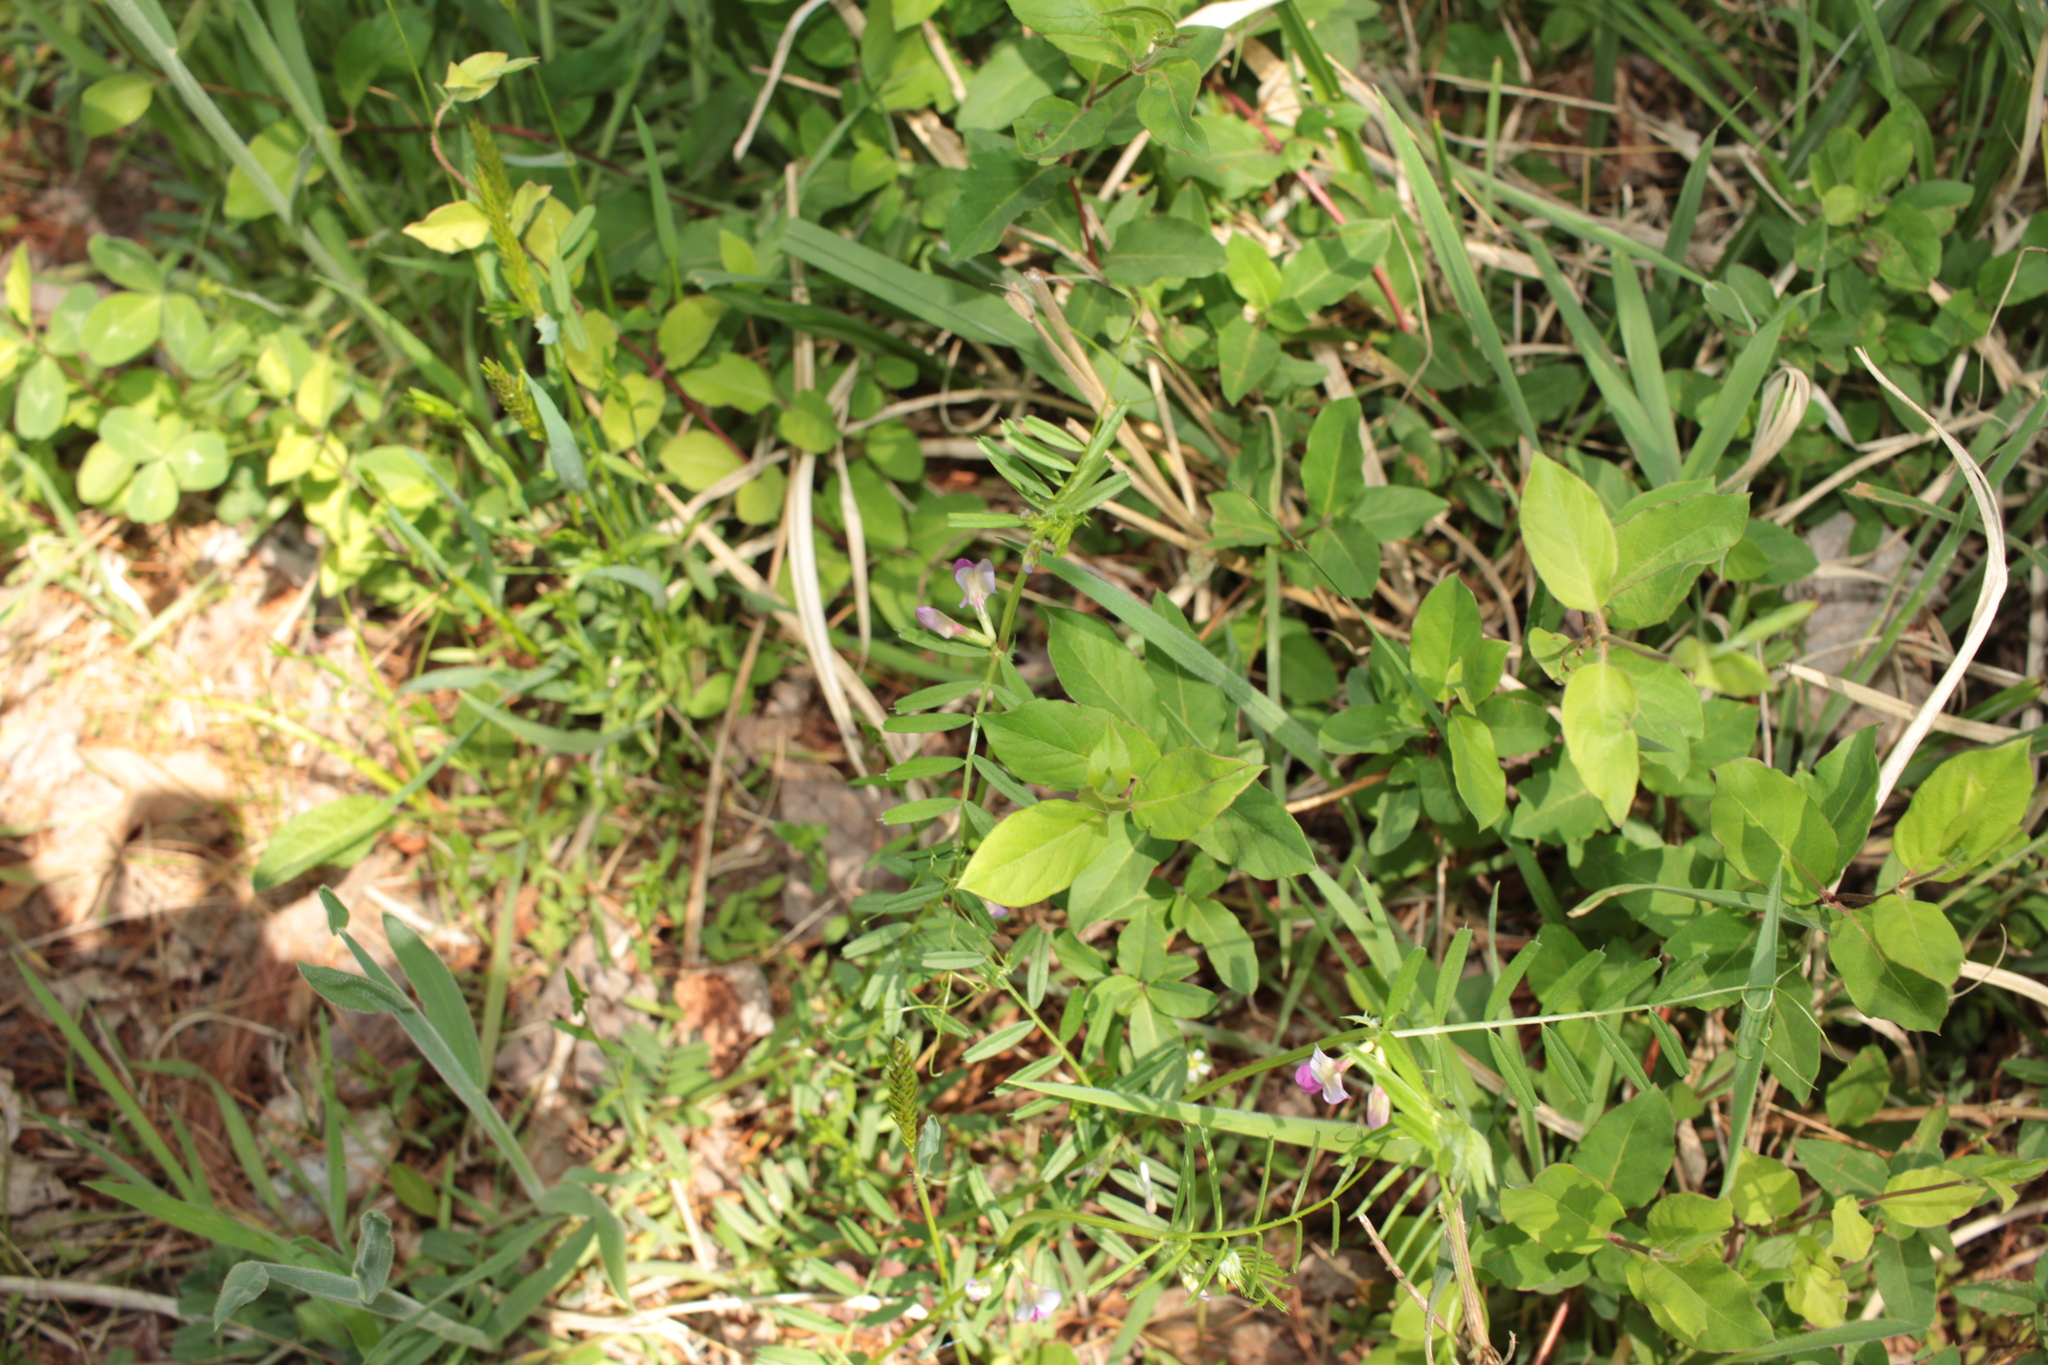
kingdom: Plantae
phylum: Tracheophyta
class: Magnoliopsida
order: Fabales
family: Fabaceae
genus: Vicia
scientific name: Vicia sativa
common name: Garden vetch
